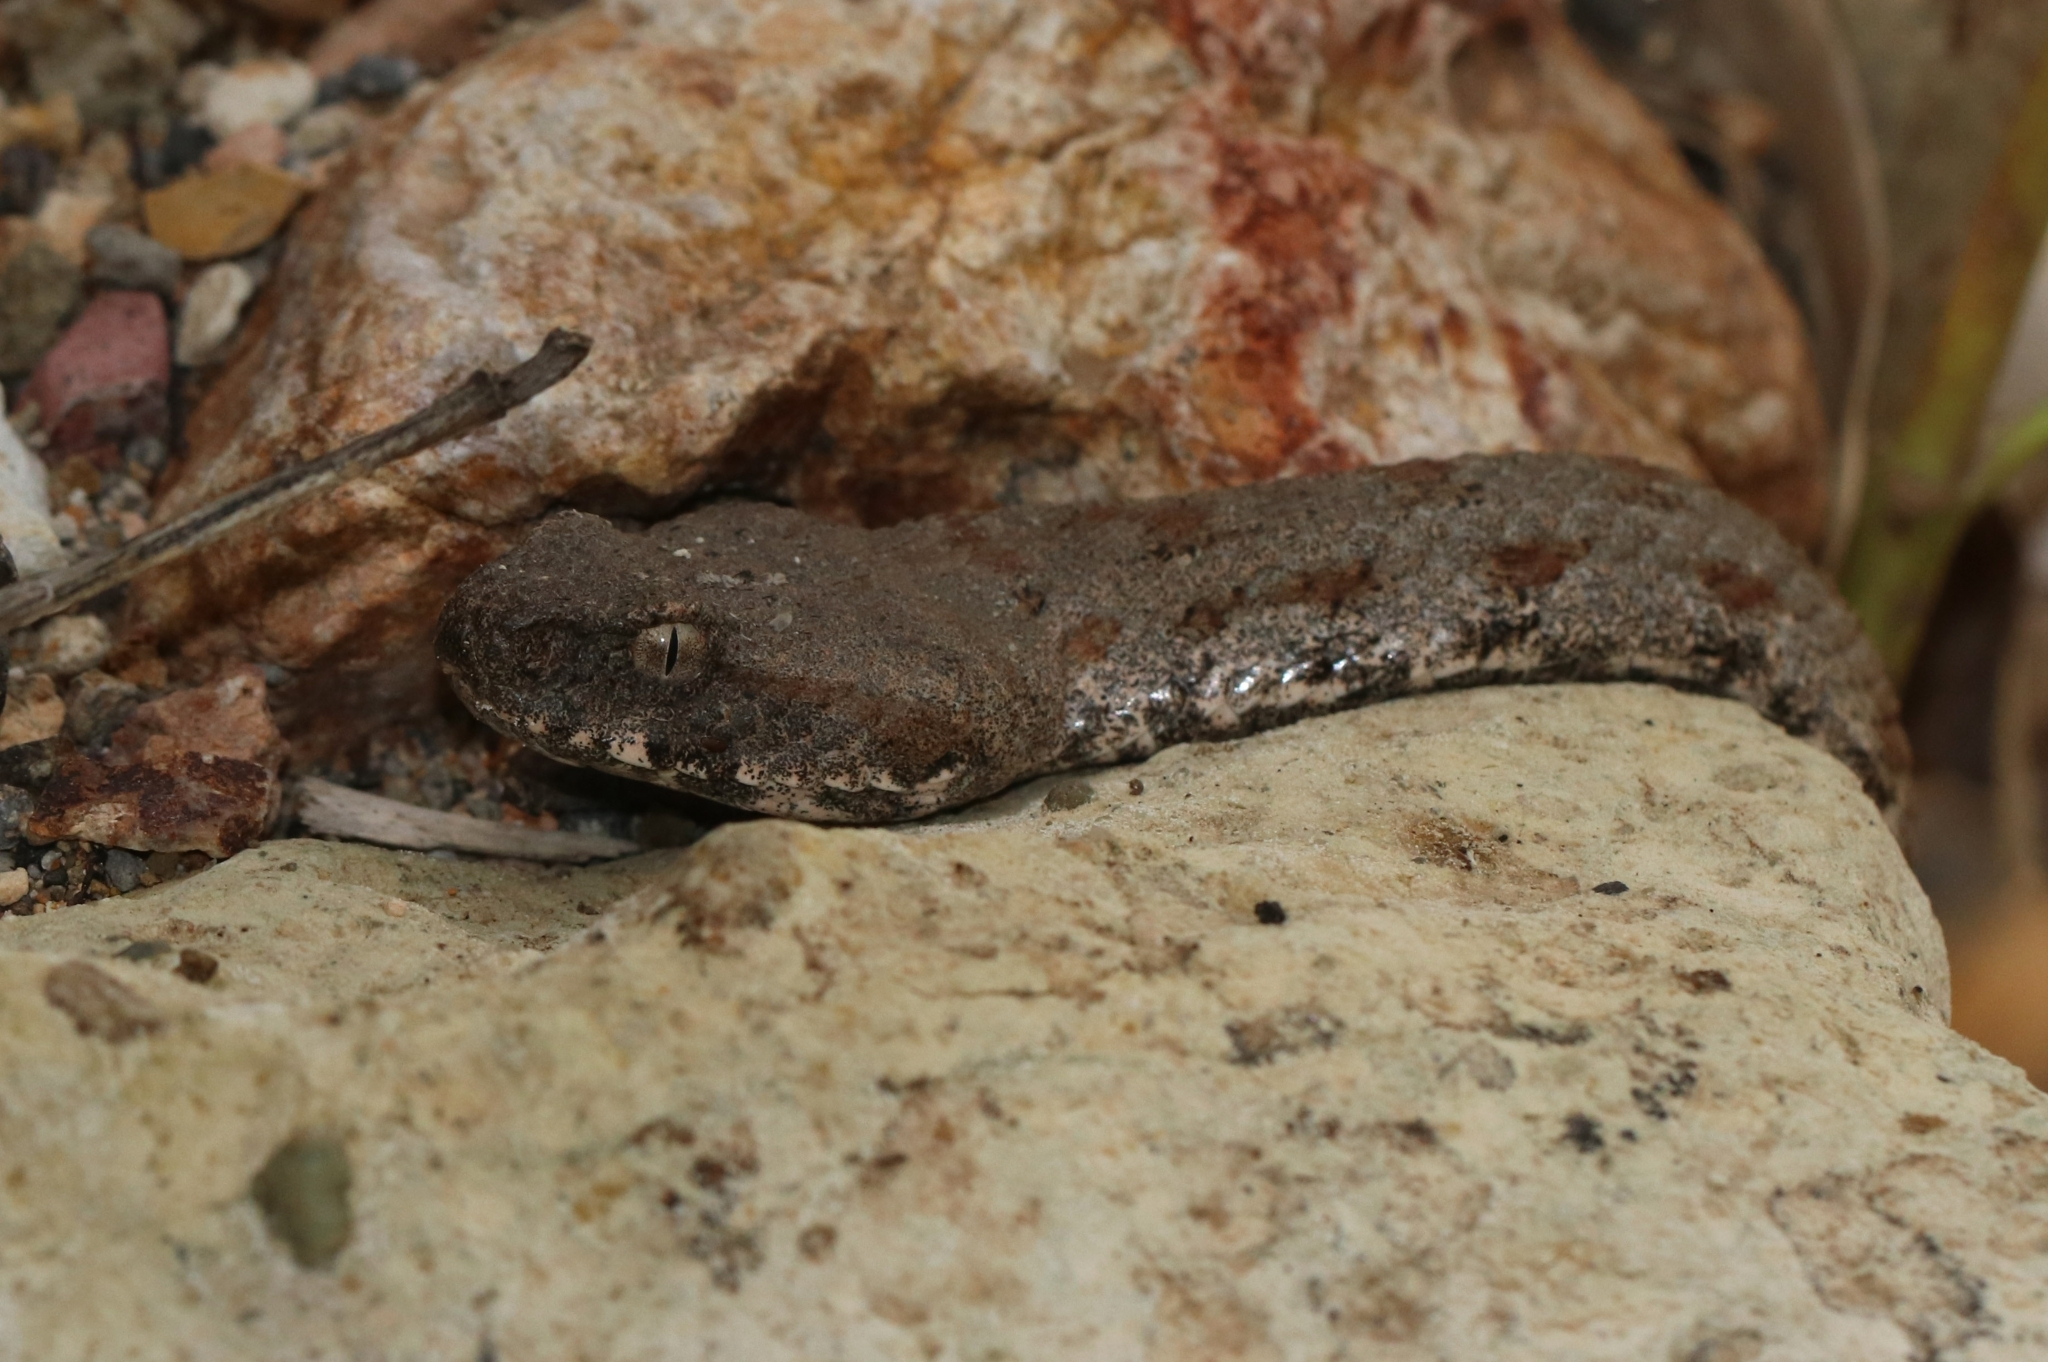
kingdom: Animalia
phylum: Chordata
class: Squamata
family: Viperidae
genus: Macrovipera
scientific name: Macrovipera lebetinus
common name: Levantine viper
